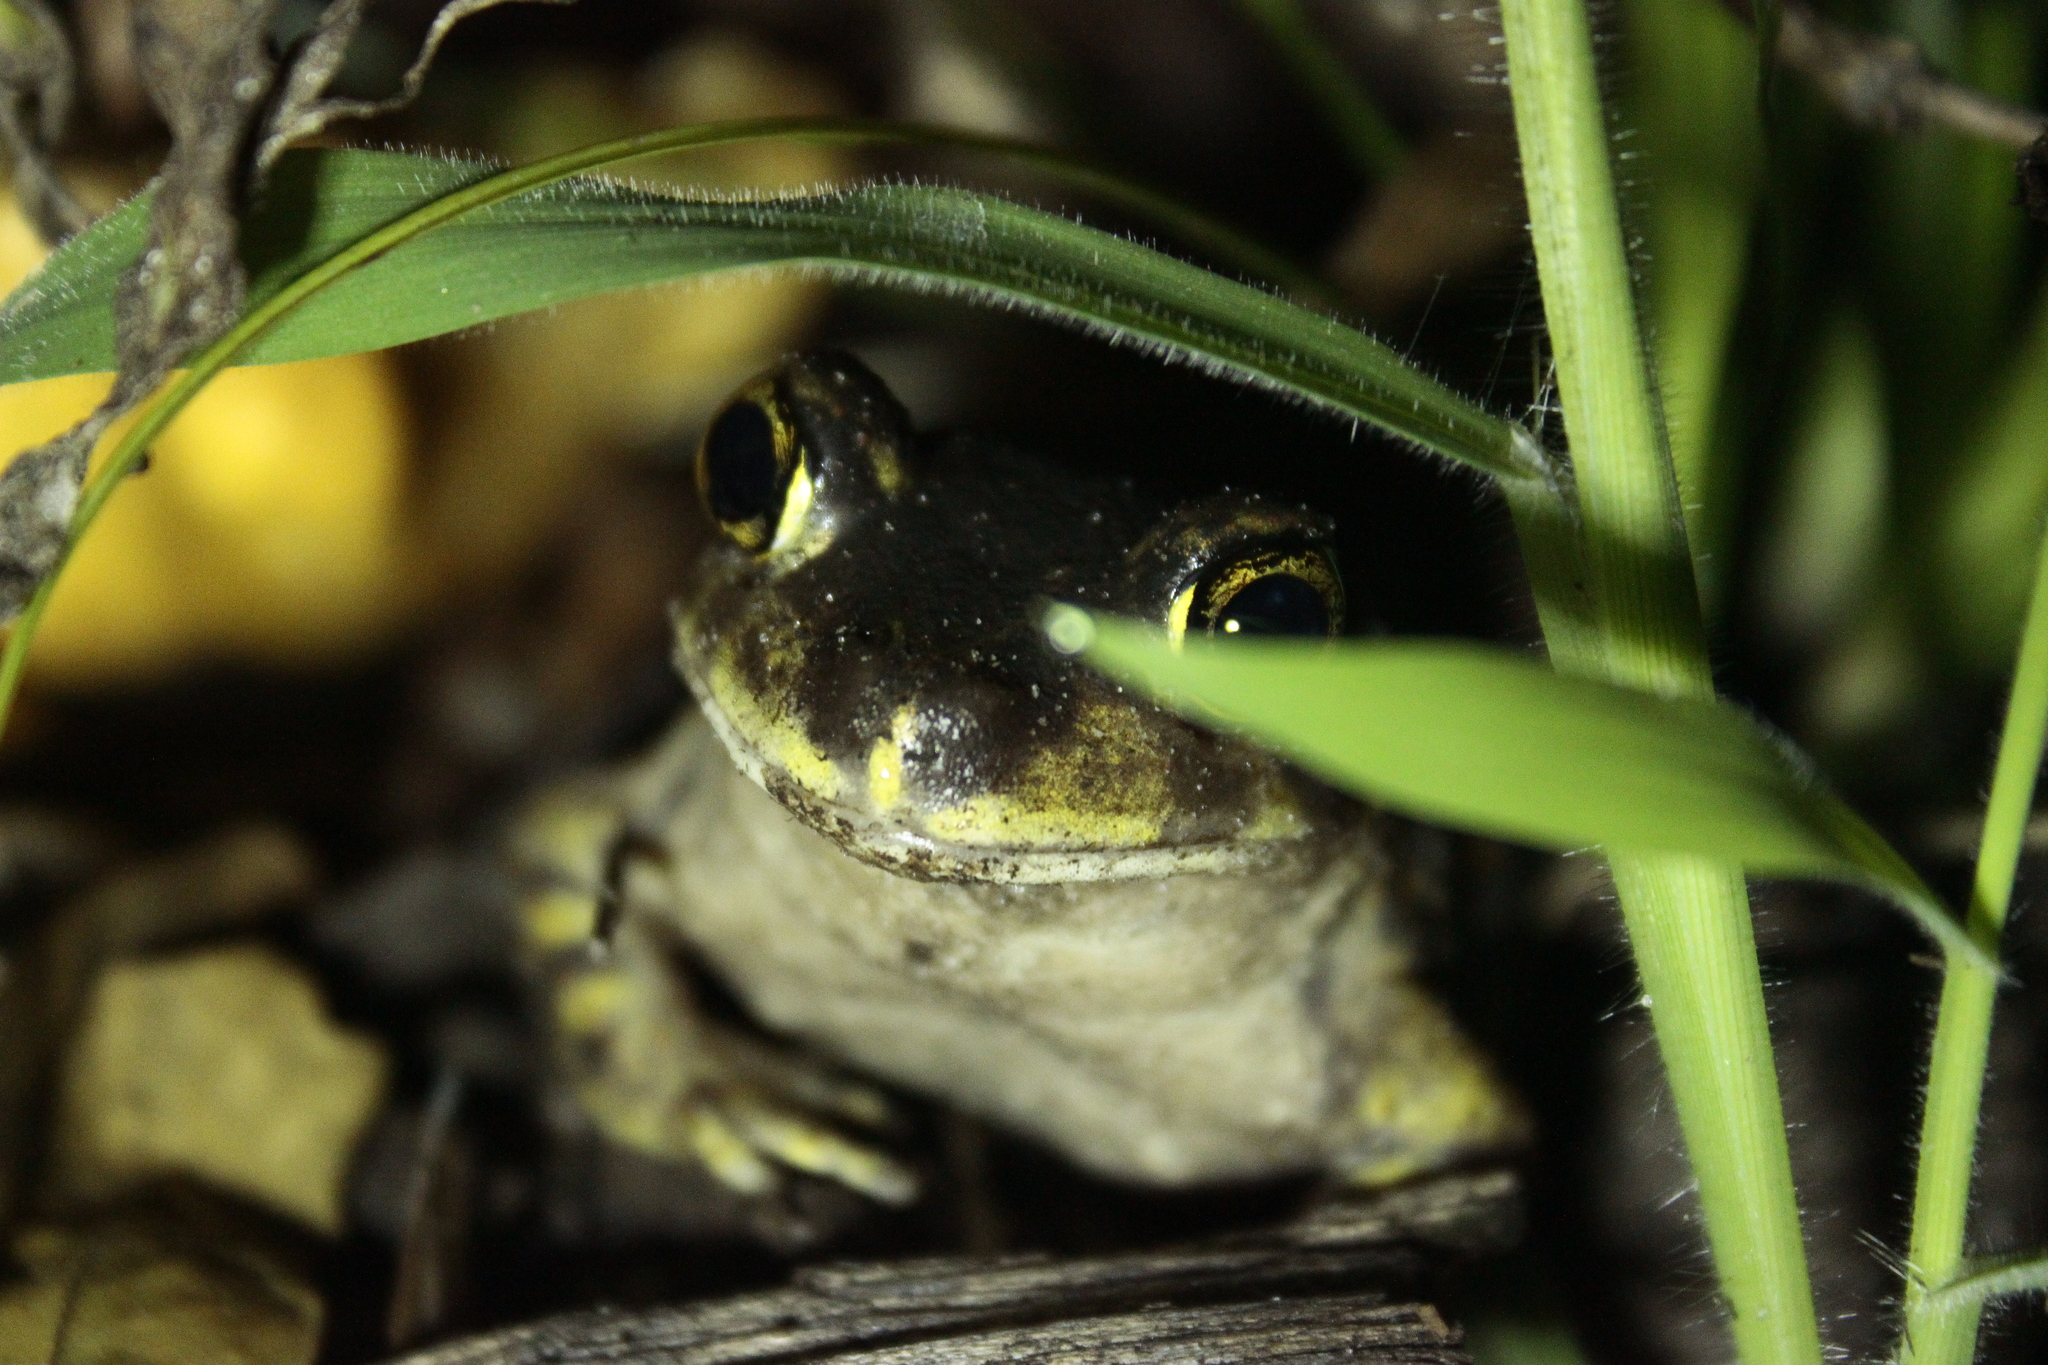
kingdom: Animalia
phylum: Chordata
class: Amphibia
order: Anura
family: Scaphiopodidae
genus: Scaphiopus
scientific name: Scaphiopus holbrookii
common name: Eastern spadefoot toad
